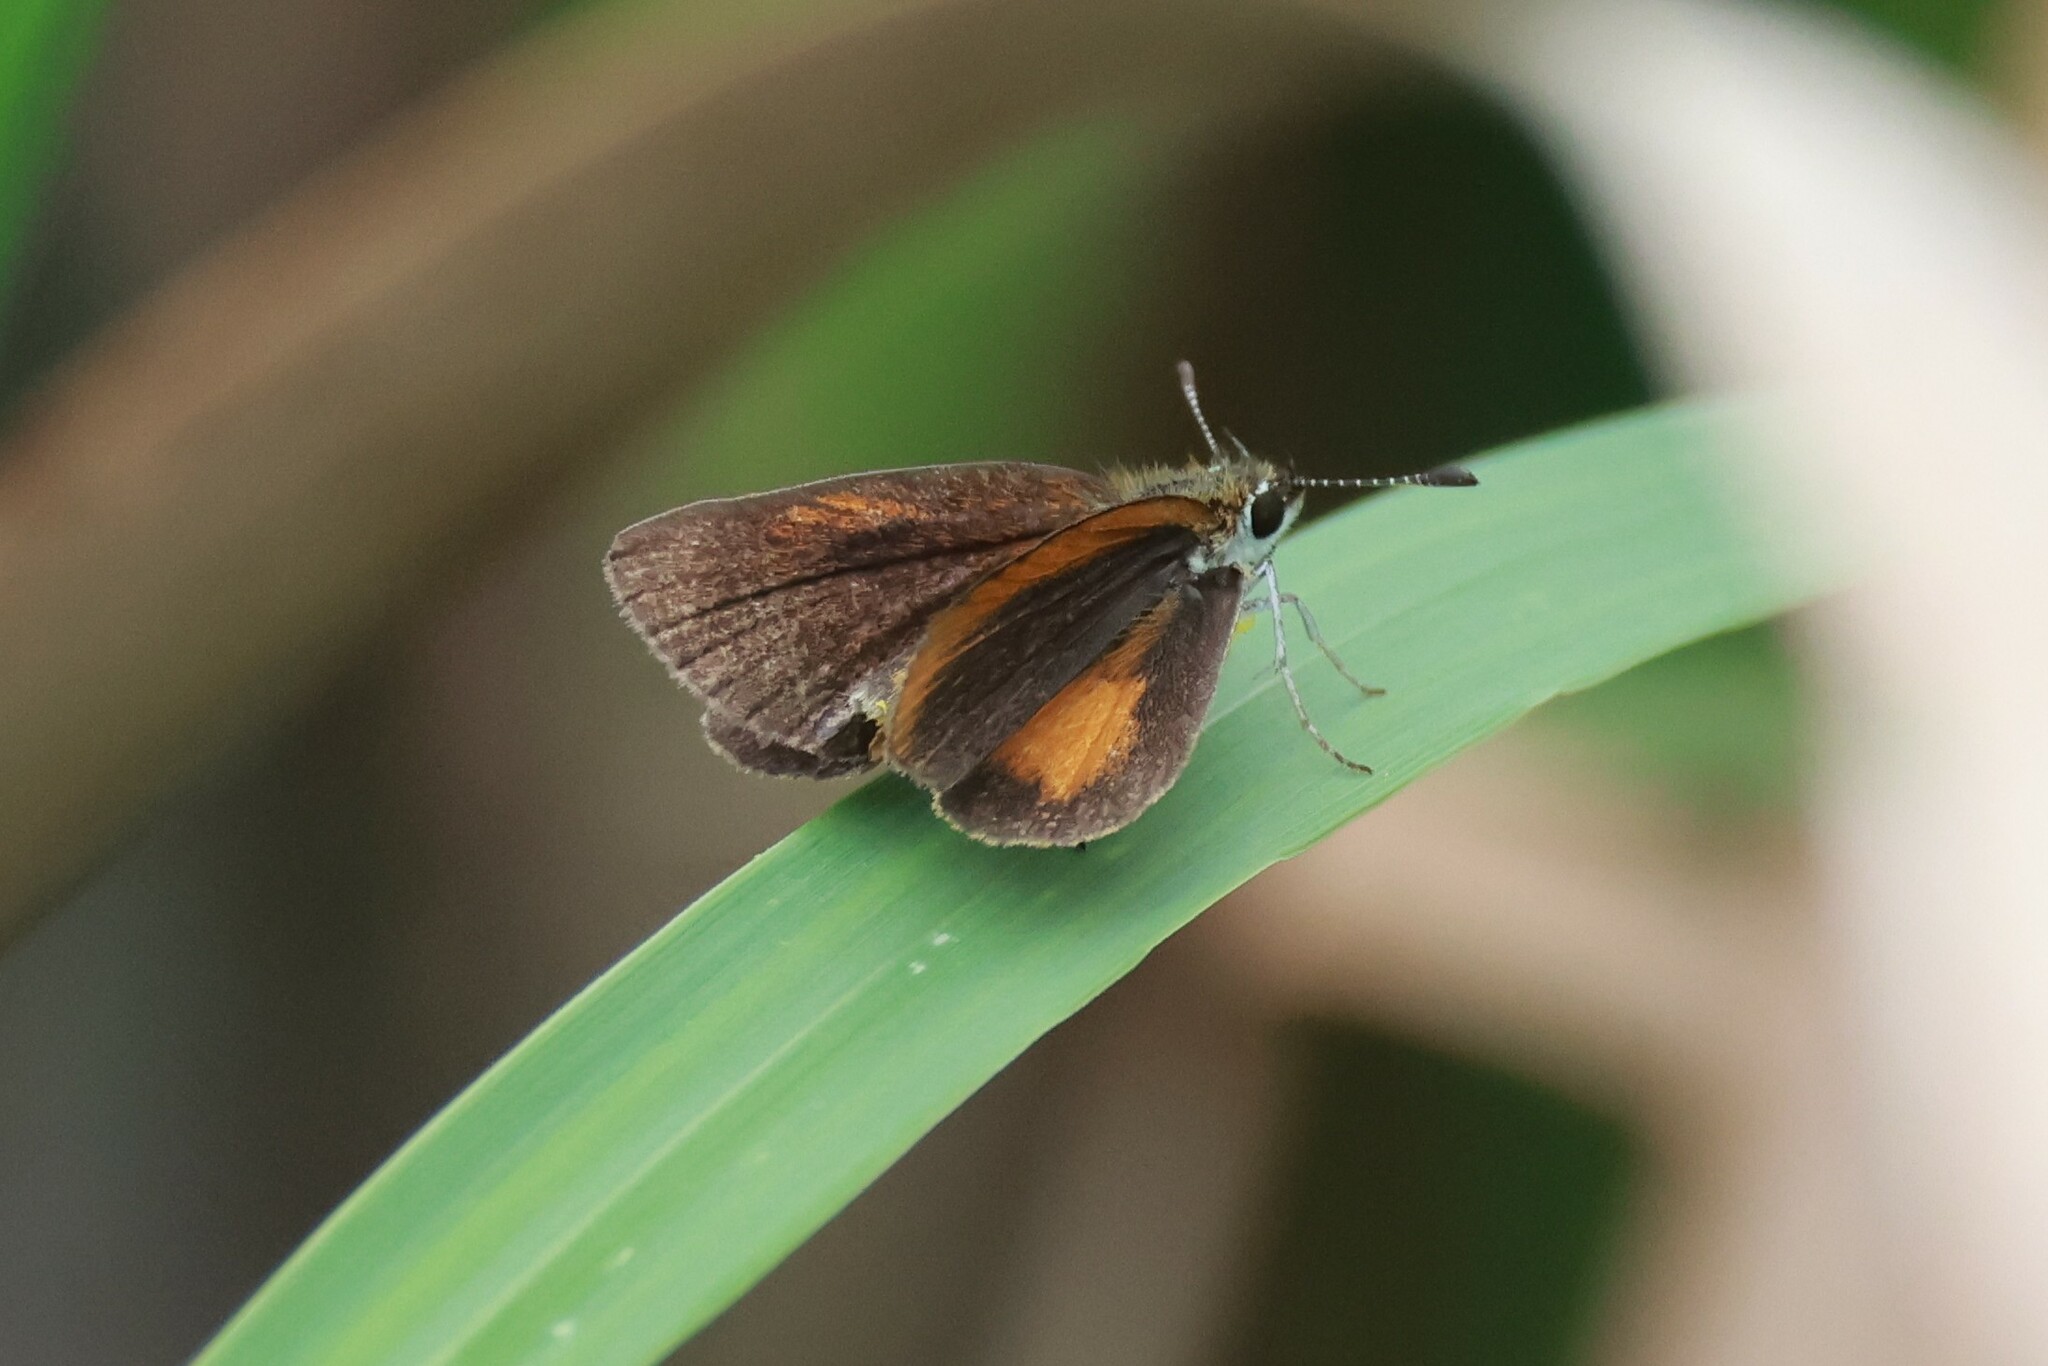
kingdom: Animalia
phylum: Arthropoda
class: Insecta
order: Lepidoptera
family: Hesperiidae
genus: Ancyloxypha
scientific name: Ancyloxypha numitor
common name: Least skipper
